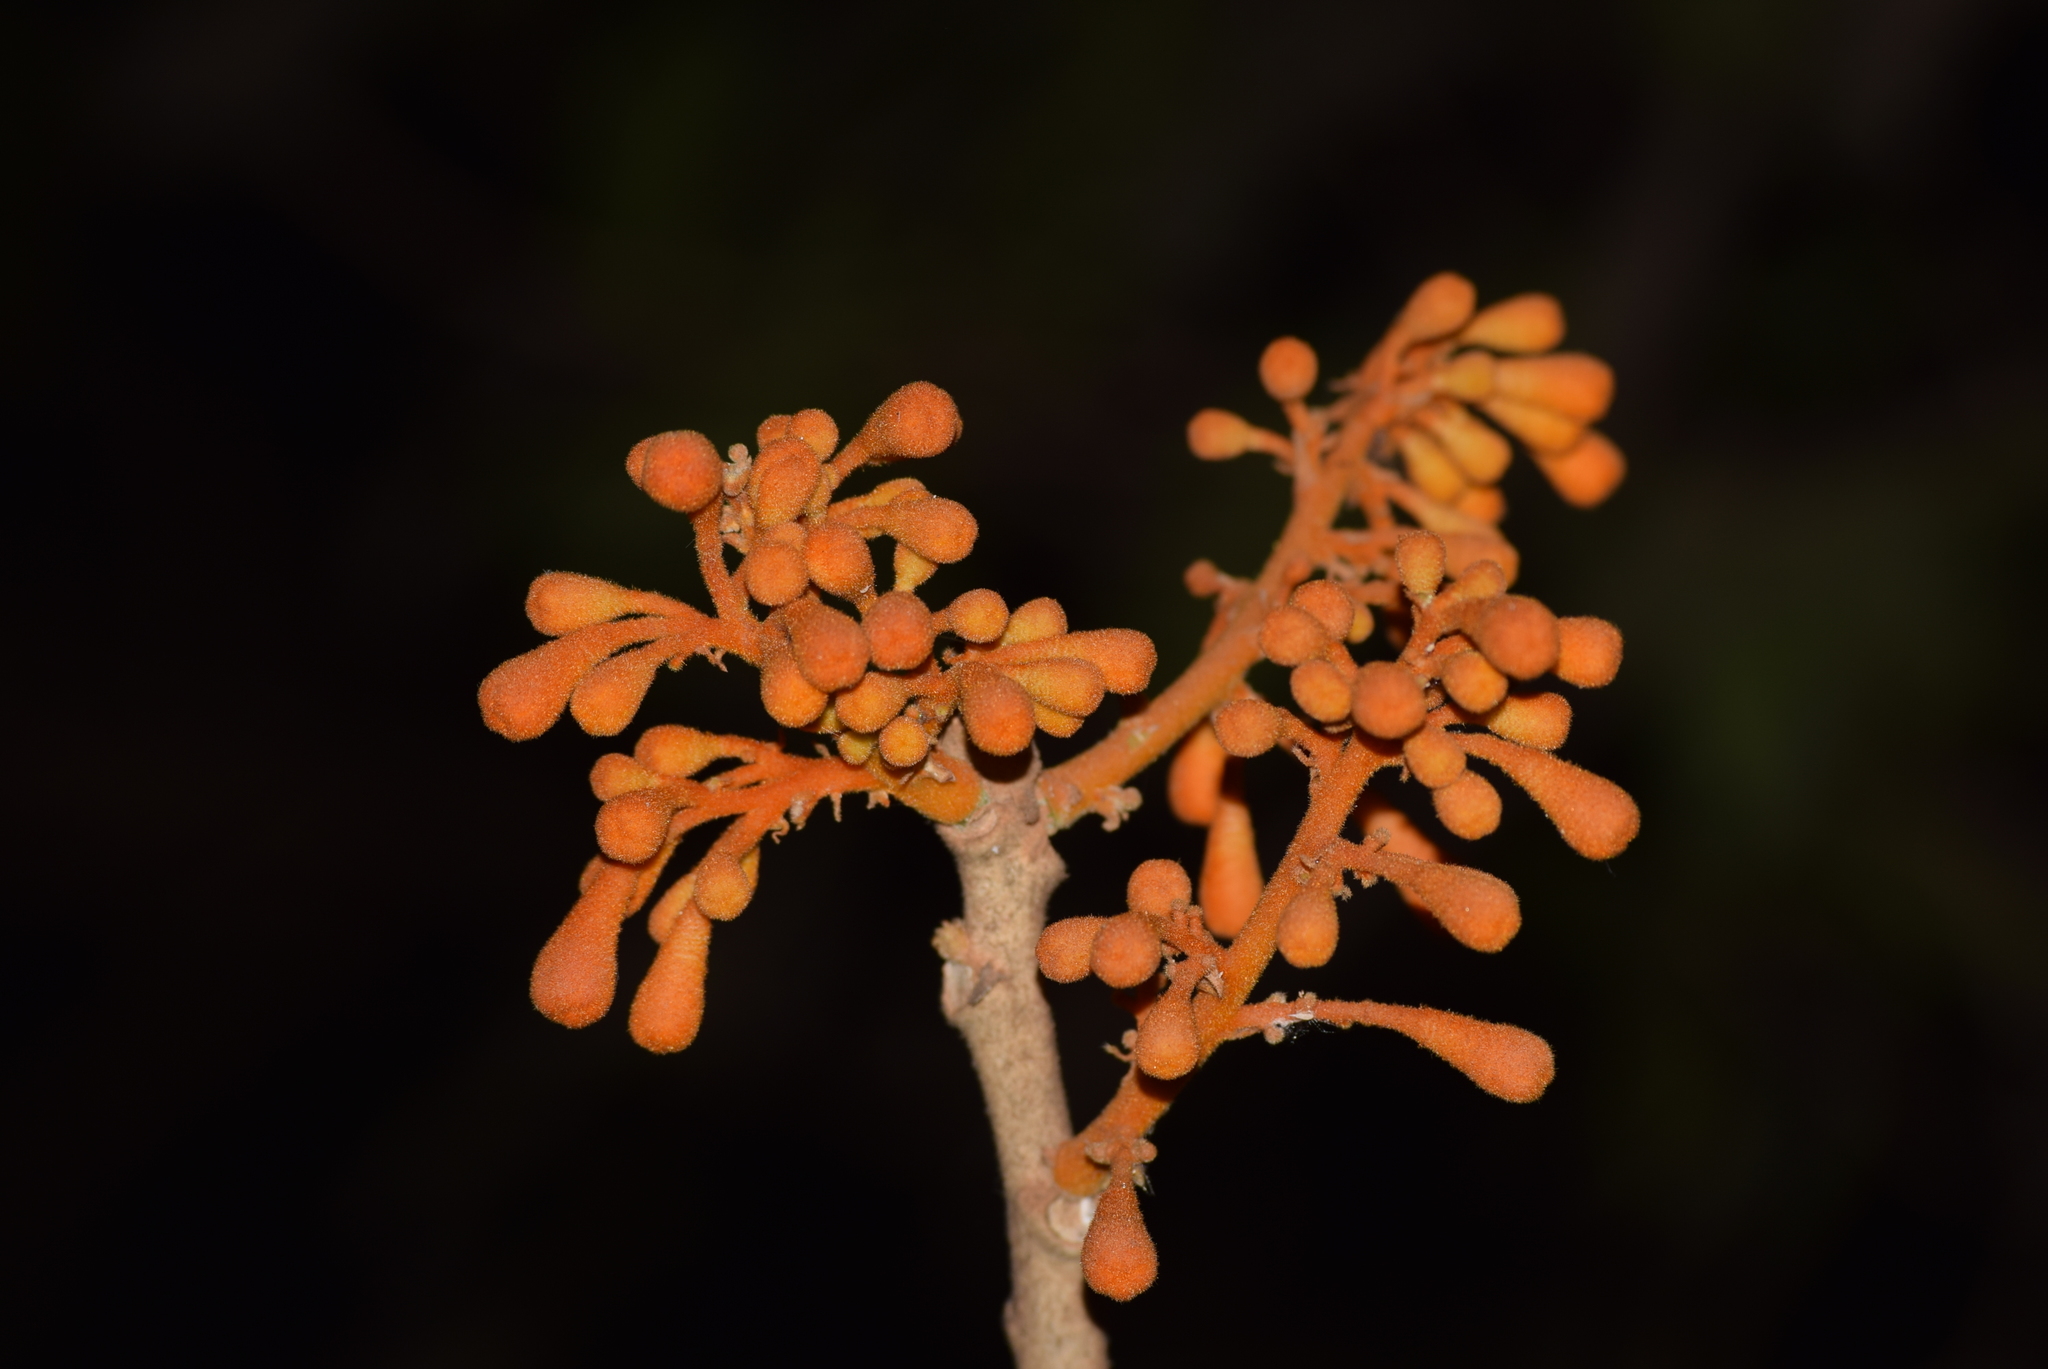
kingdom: Plantae
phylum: Tracheophyta
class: Magnoliopsida
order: Malvales
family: Malvaceae
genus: Firmiana
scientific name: Firmiana colorata
